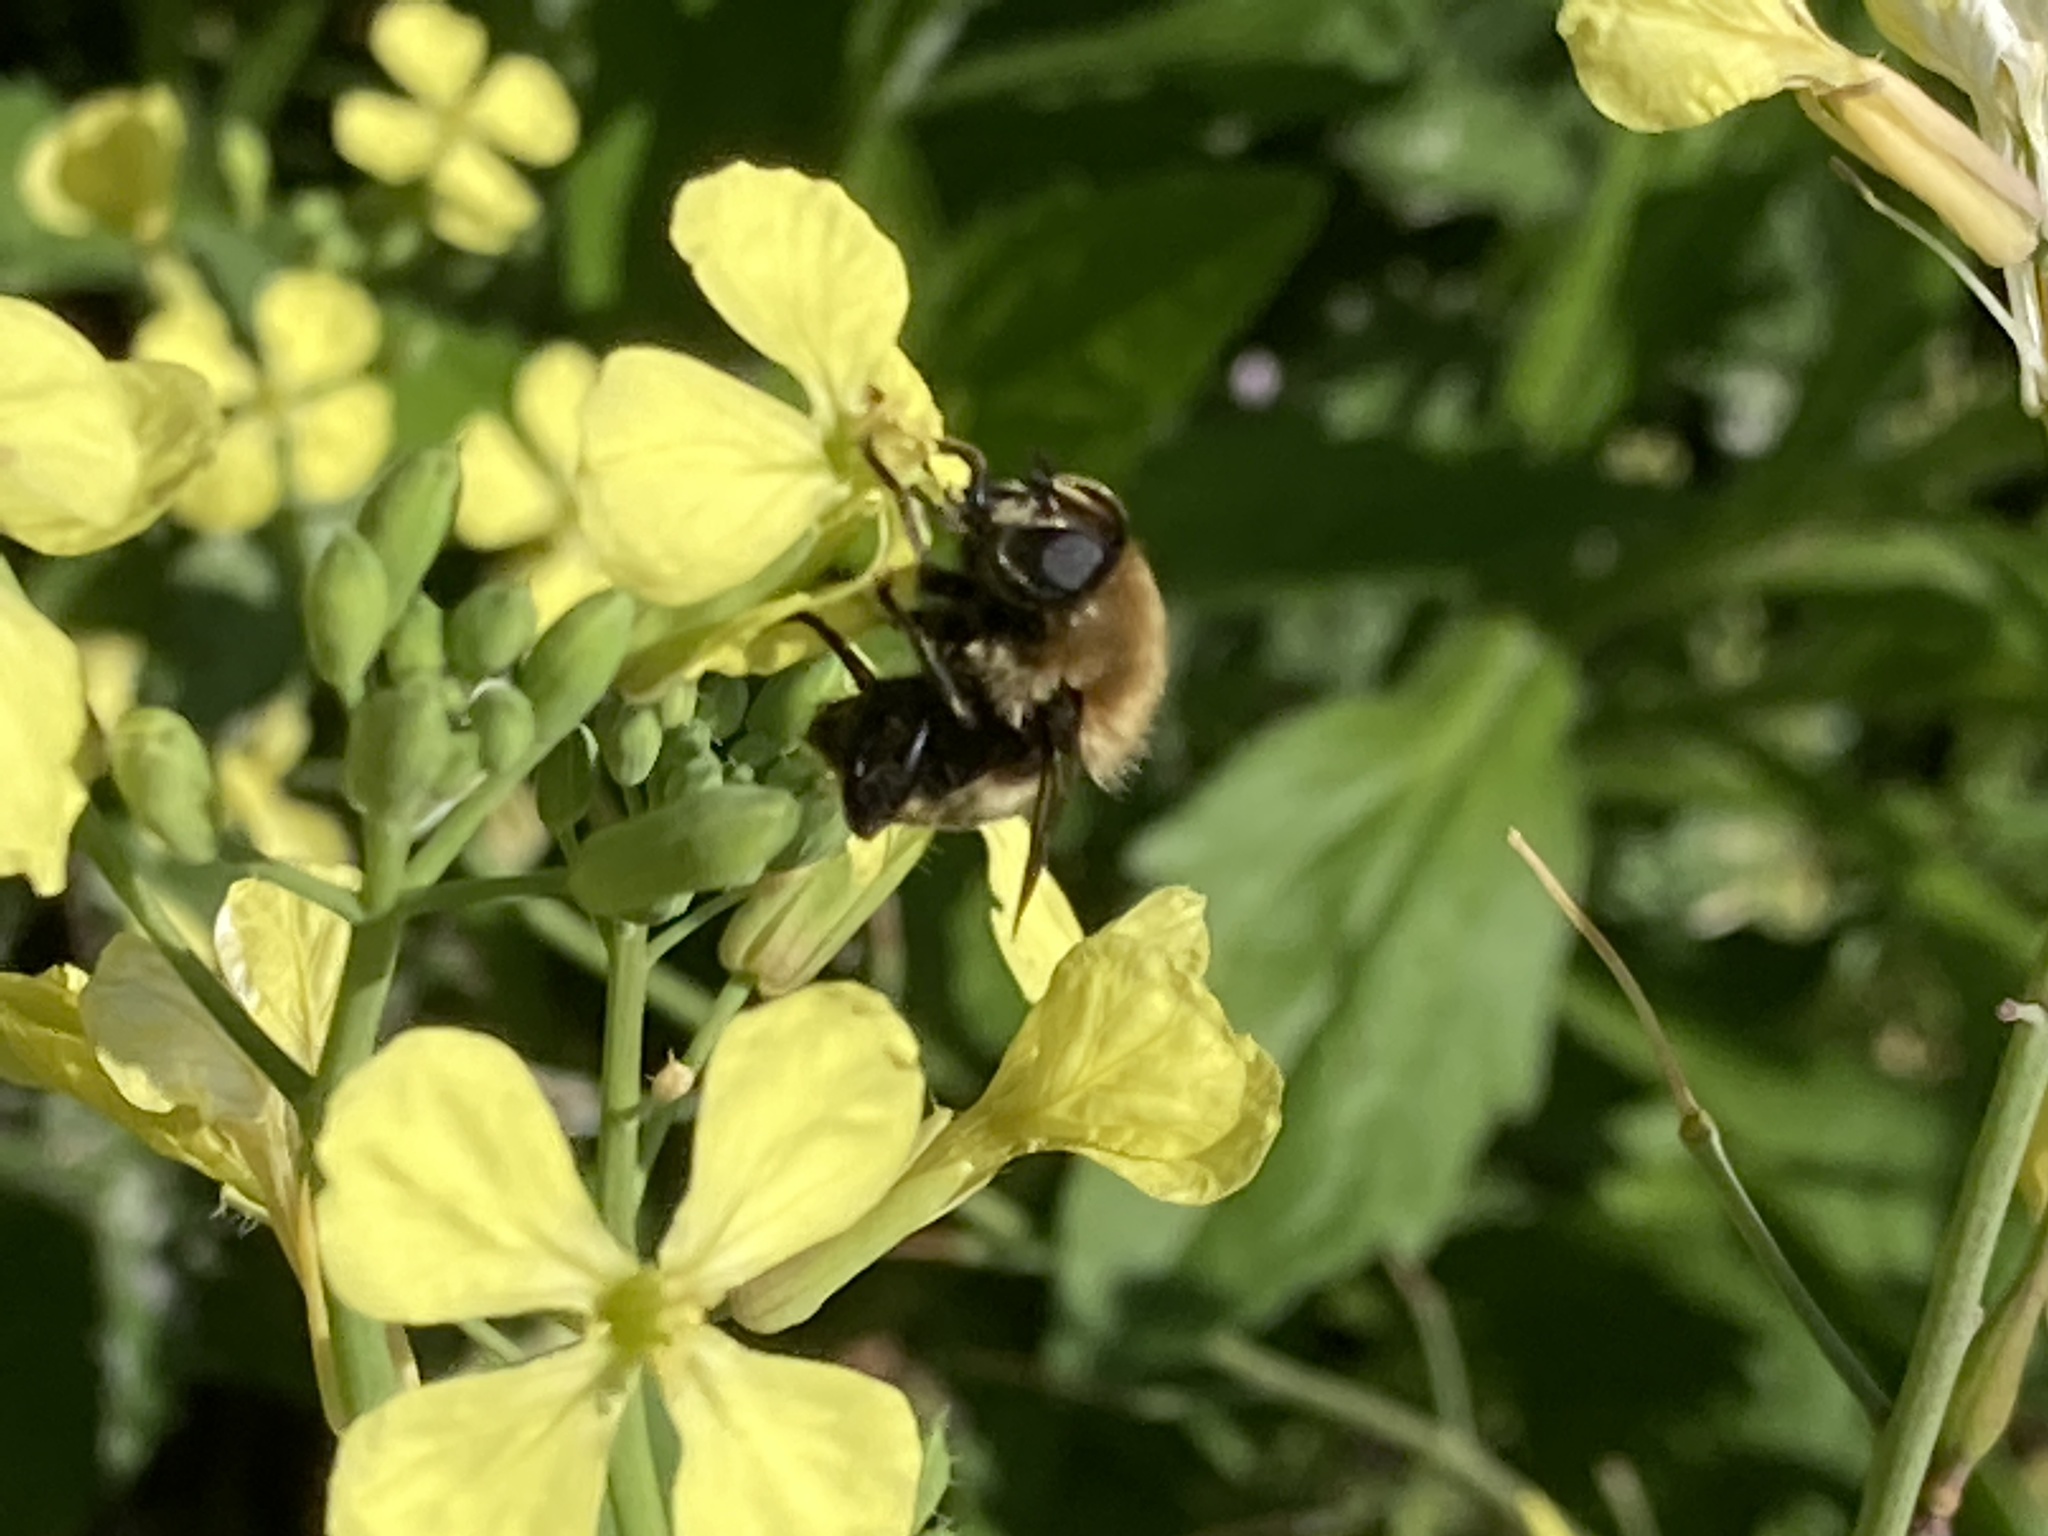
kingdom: Animalia
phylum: Arthropoda
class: Insecta
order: Diptera
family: Syrphidae
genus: Merodon
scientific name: Merodon equestris
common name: Greater bulb-fly
